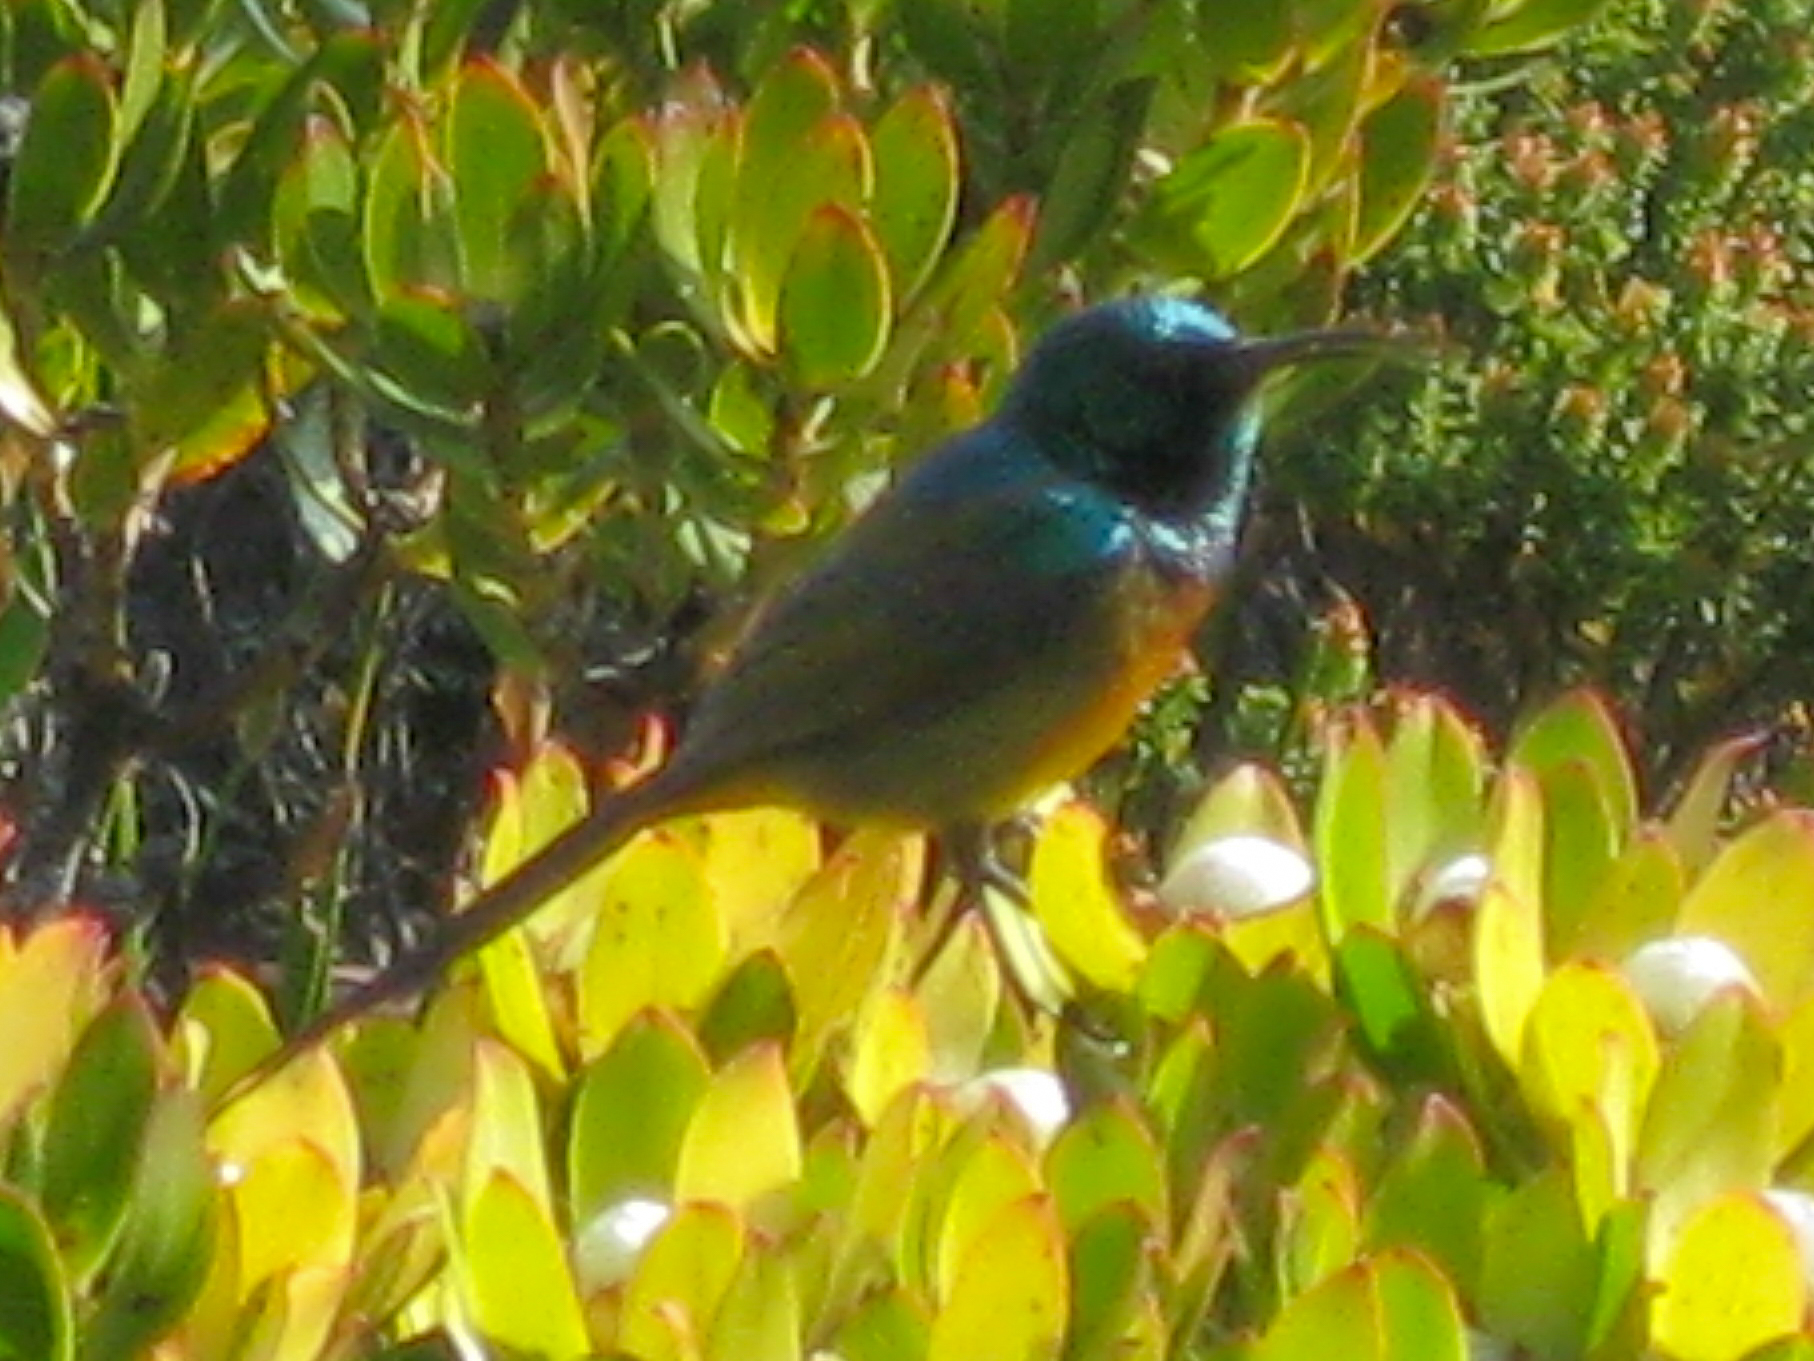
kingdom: Animalia
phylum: Chordata
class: Aves
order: Passeriformes
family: Nectariniidae
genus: Anthobaphes
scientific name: Anthobaphes violacea
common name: Orange-breasted sunbird
